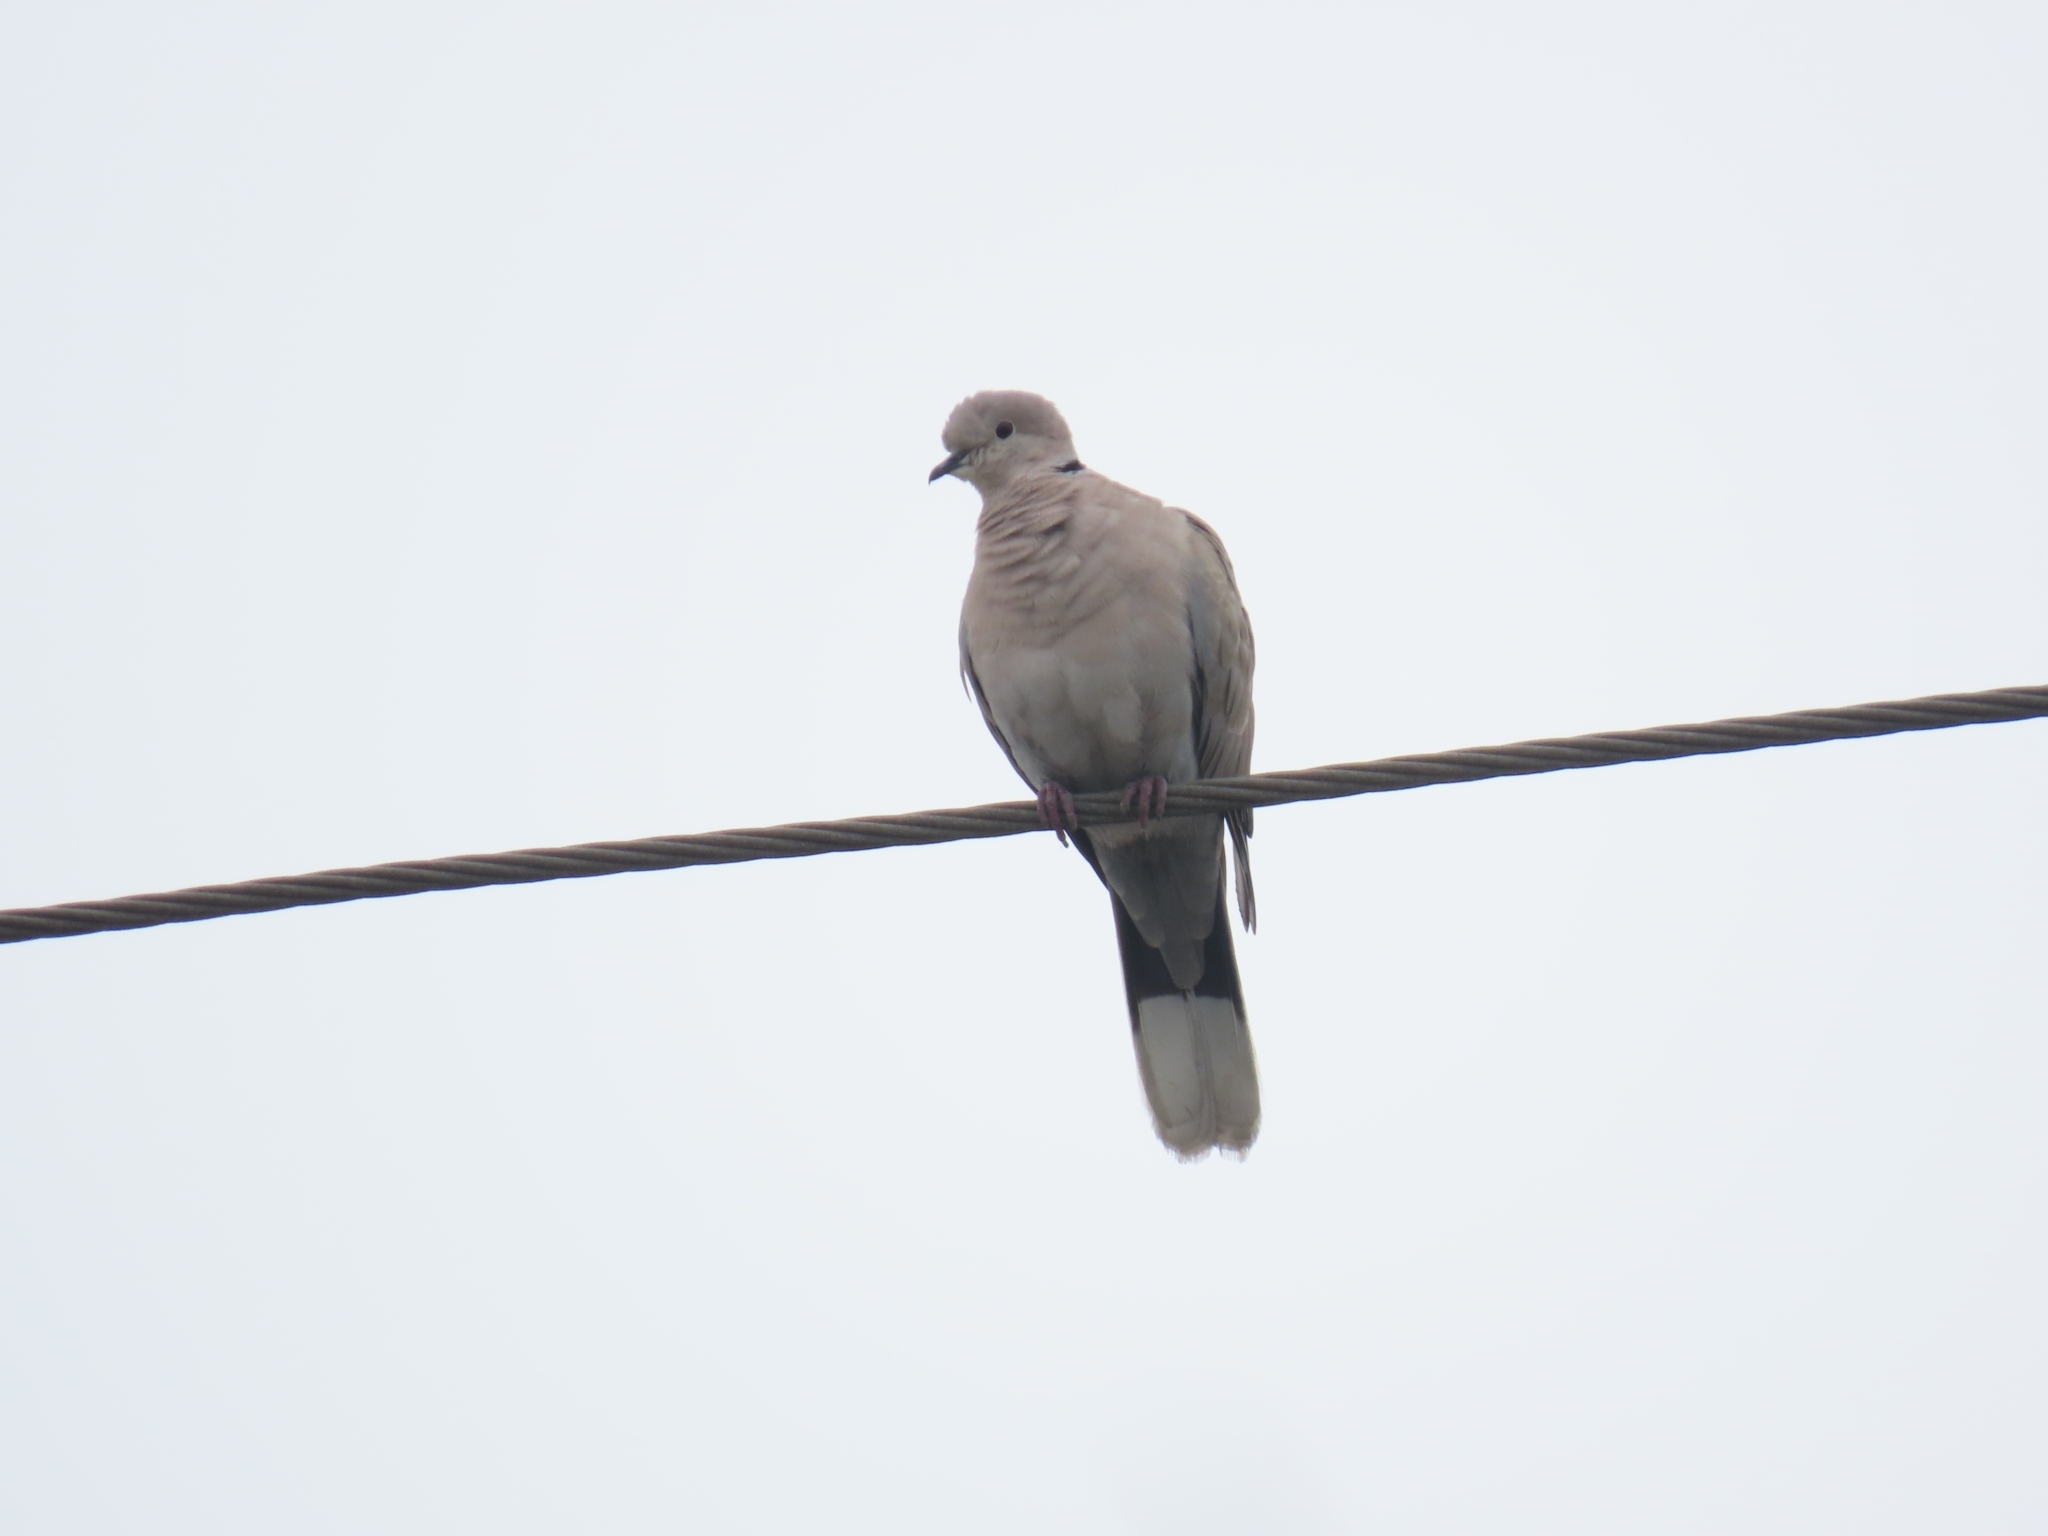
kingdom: Animalia
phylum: Chordata
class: Aves
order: Columbiformes
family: Columbidae
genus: Streptopelia
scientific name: Streptopelia decaocto
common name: Eurasian collared dove
